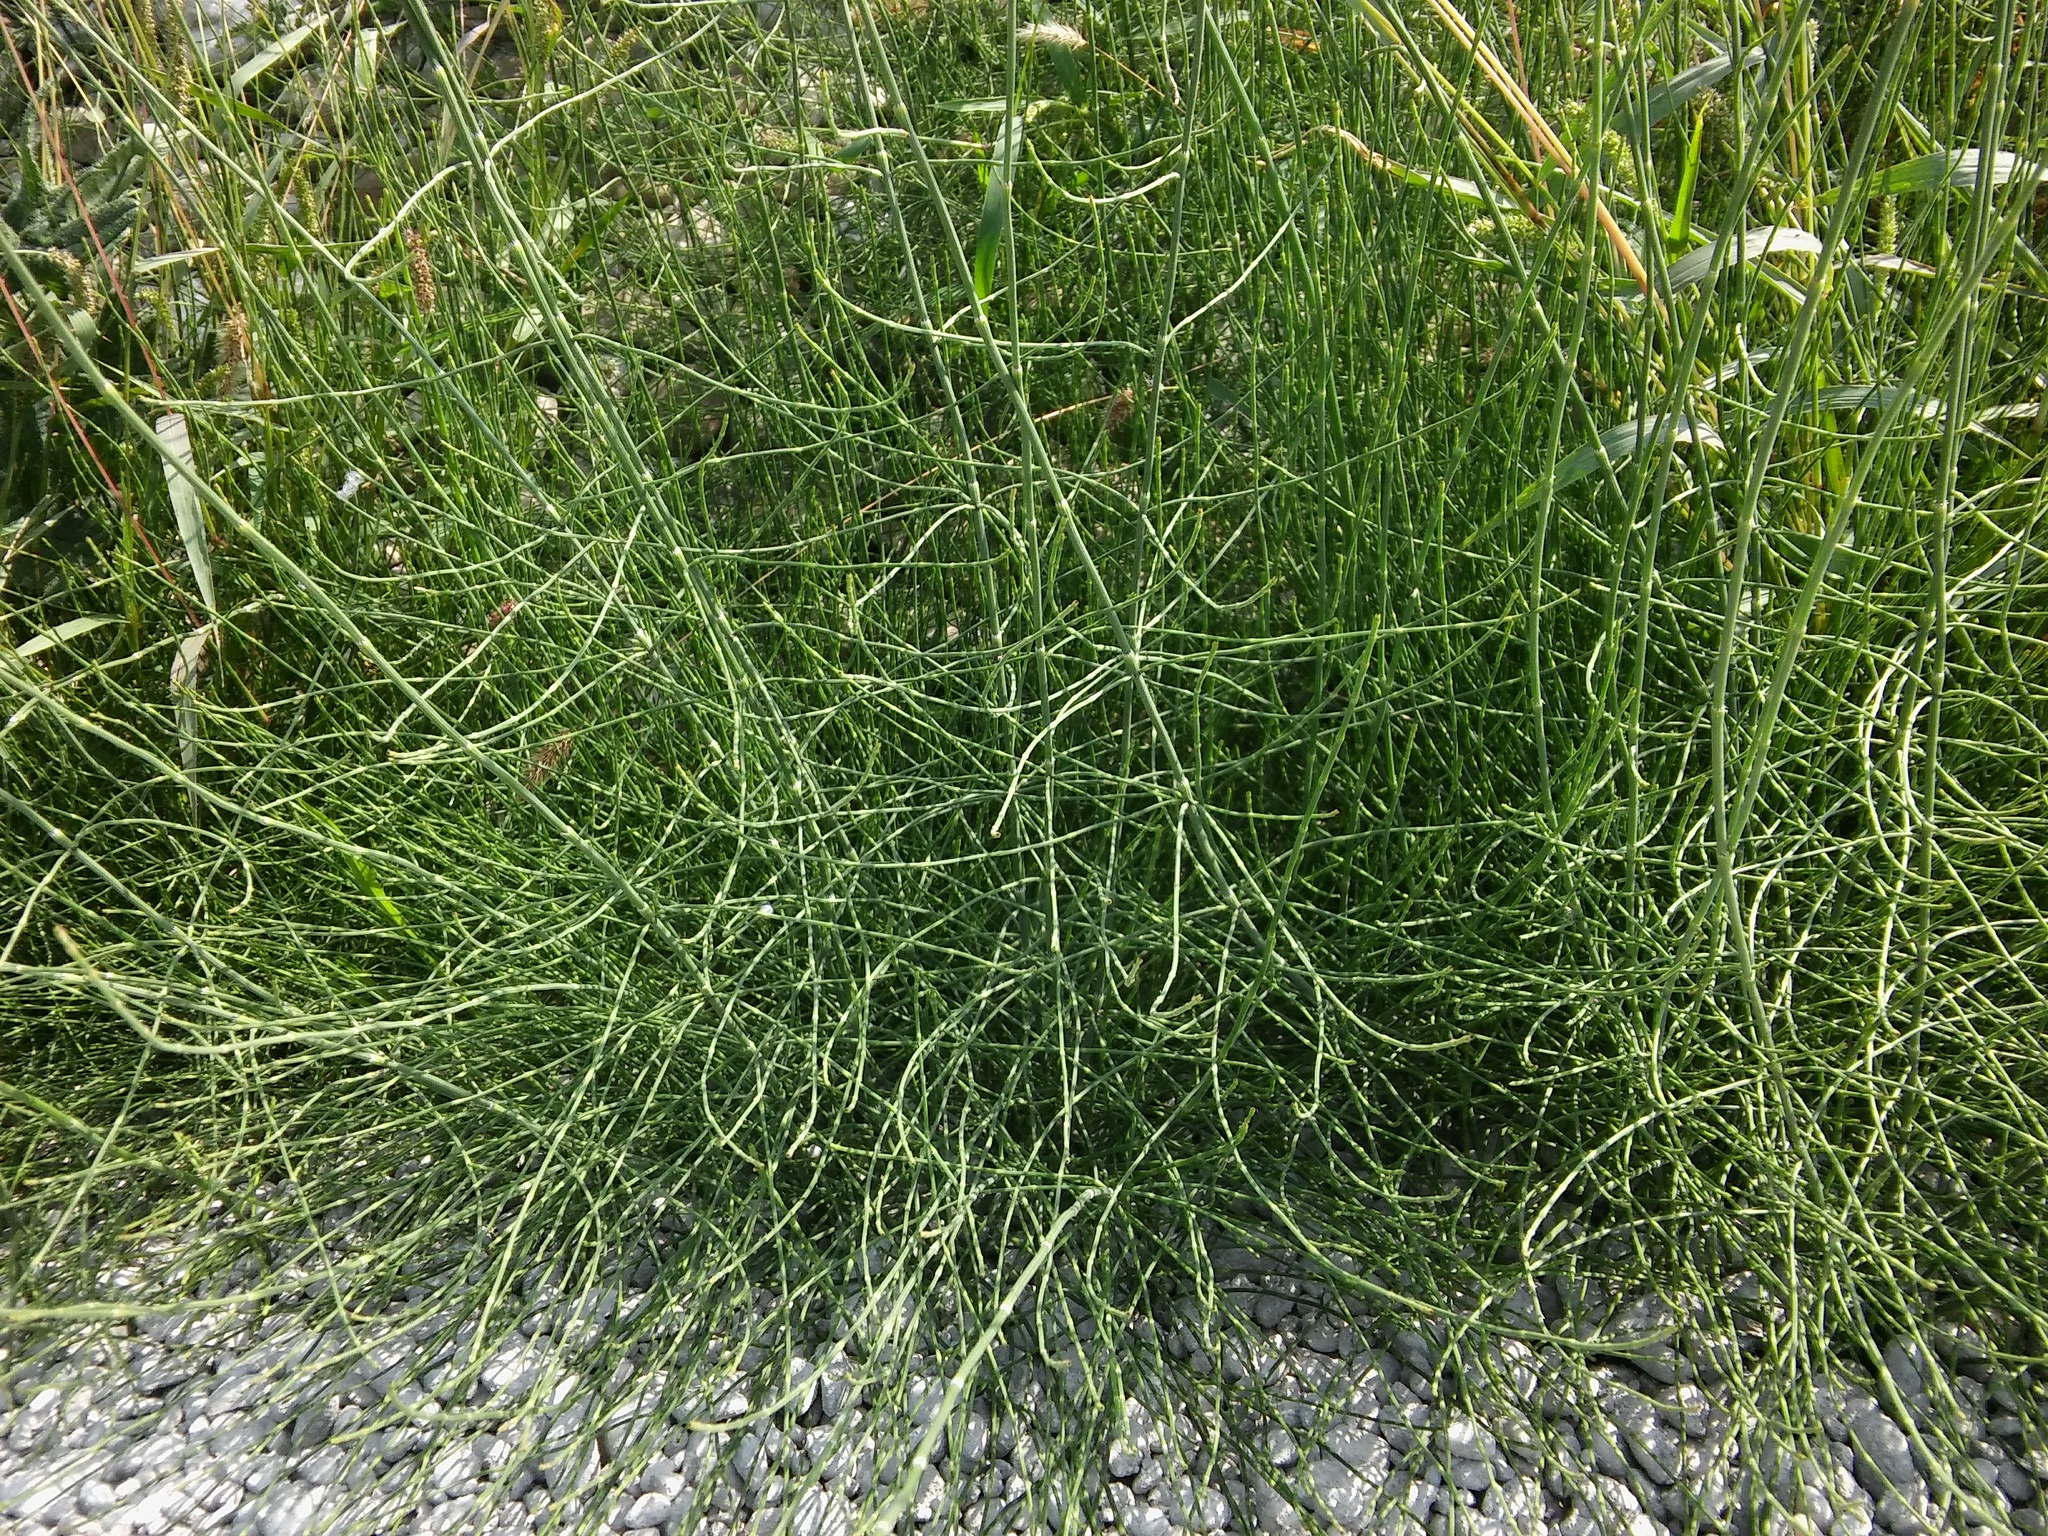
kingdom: Plantae
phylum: Tracheophyta
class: Polypodiopsida
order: Equisetales
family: Equisetaceae
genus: Equisetum
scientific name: Equisetum ramosissimum
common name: Branched horsetail
